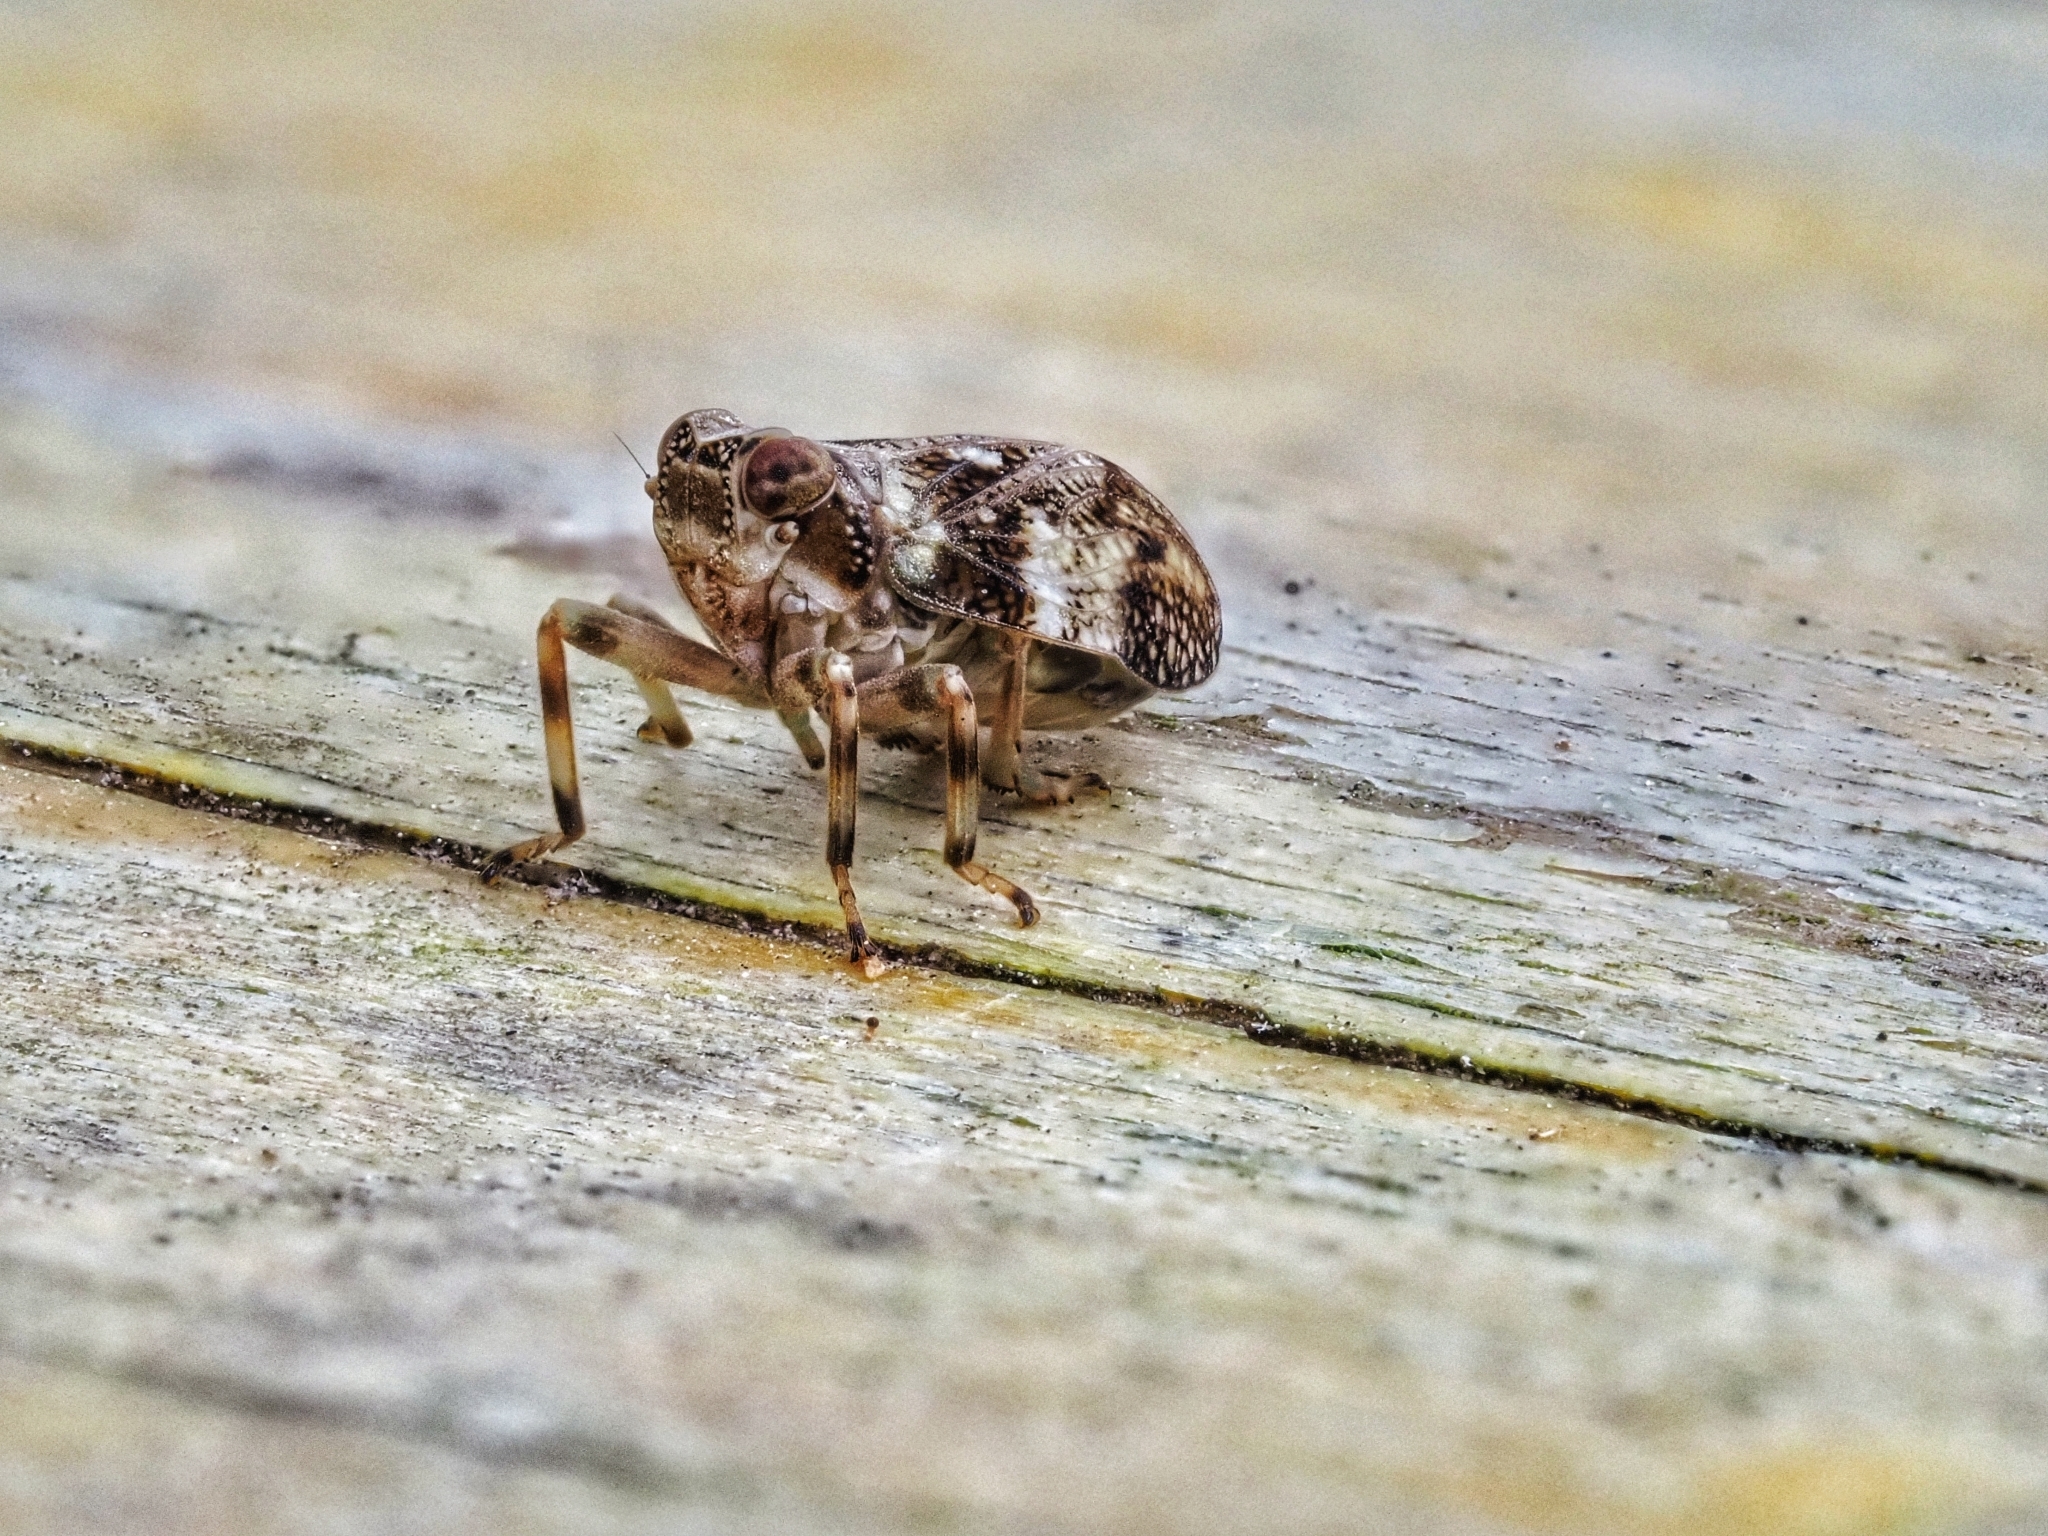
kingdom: Animalia
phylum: Arthropoda
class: Insecta
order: Hemiptera
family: Issidae
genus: Issus
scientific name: Issus coleoptratus
